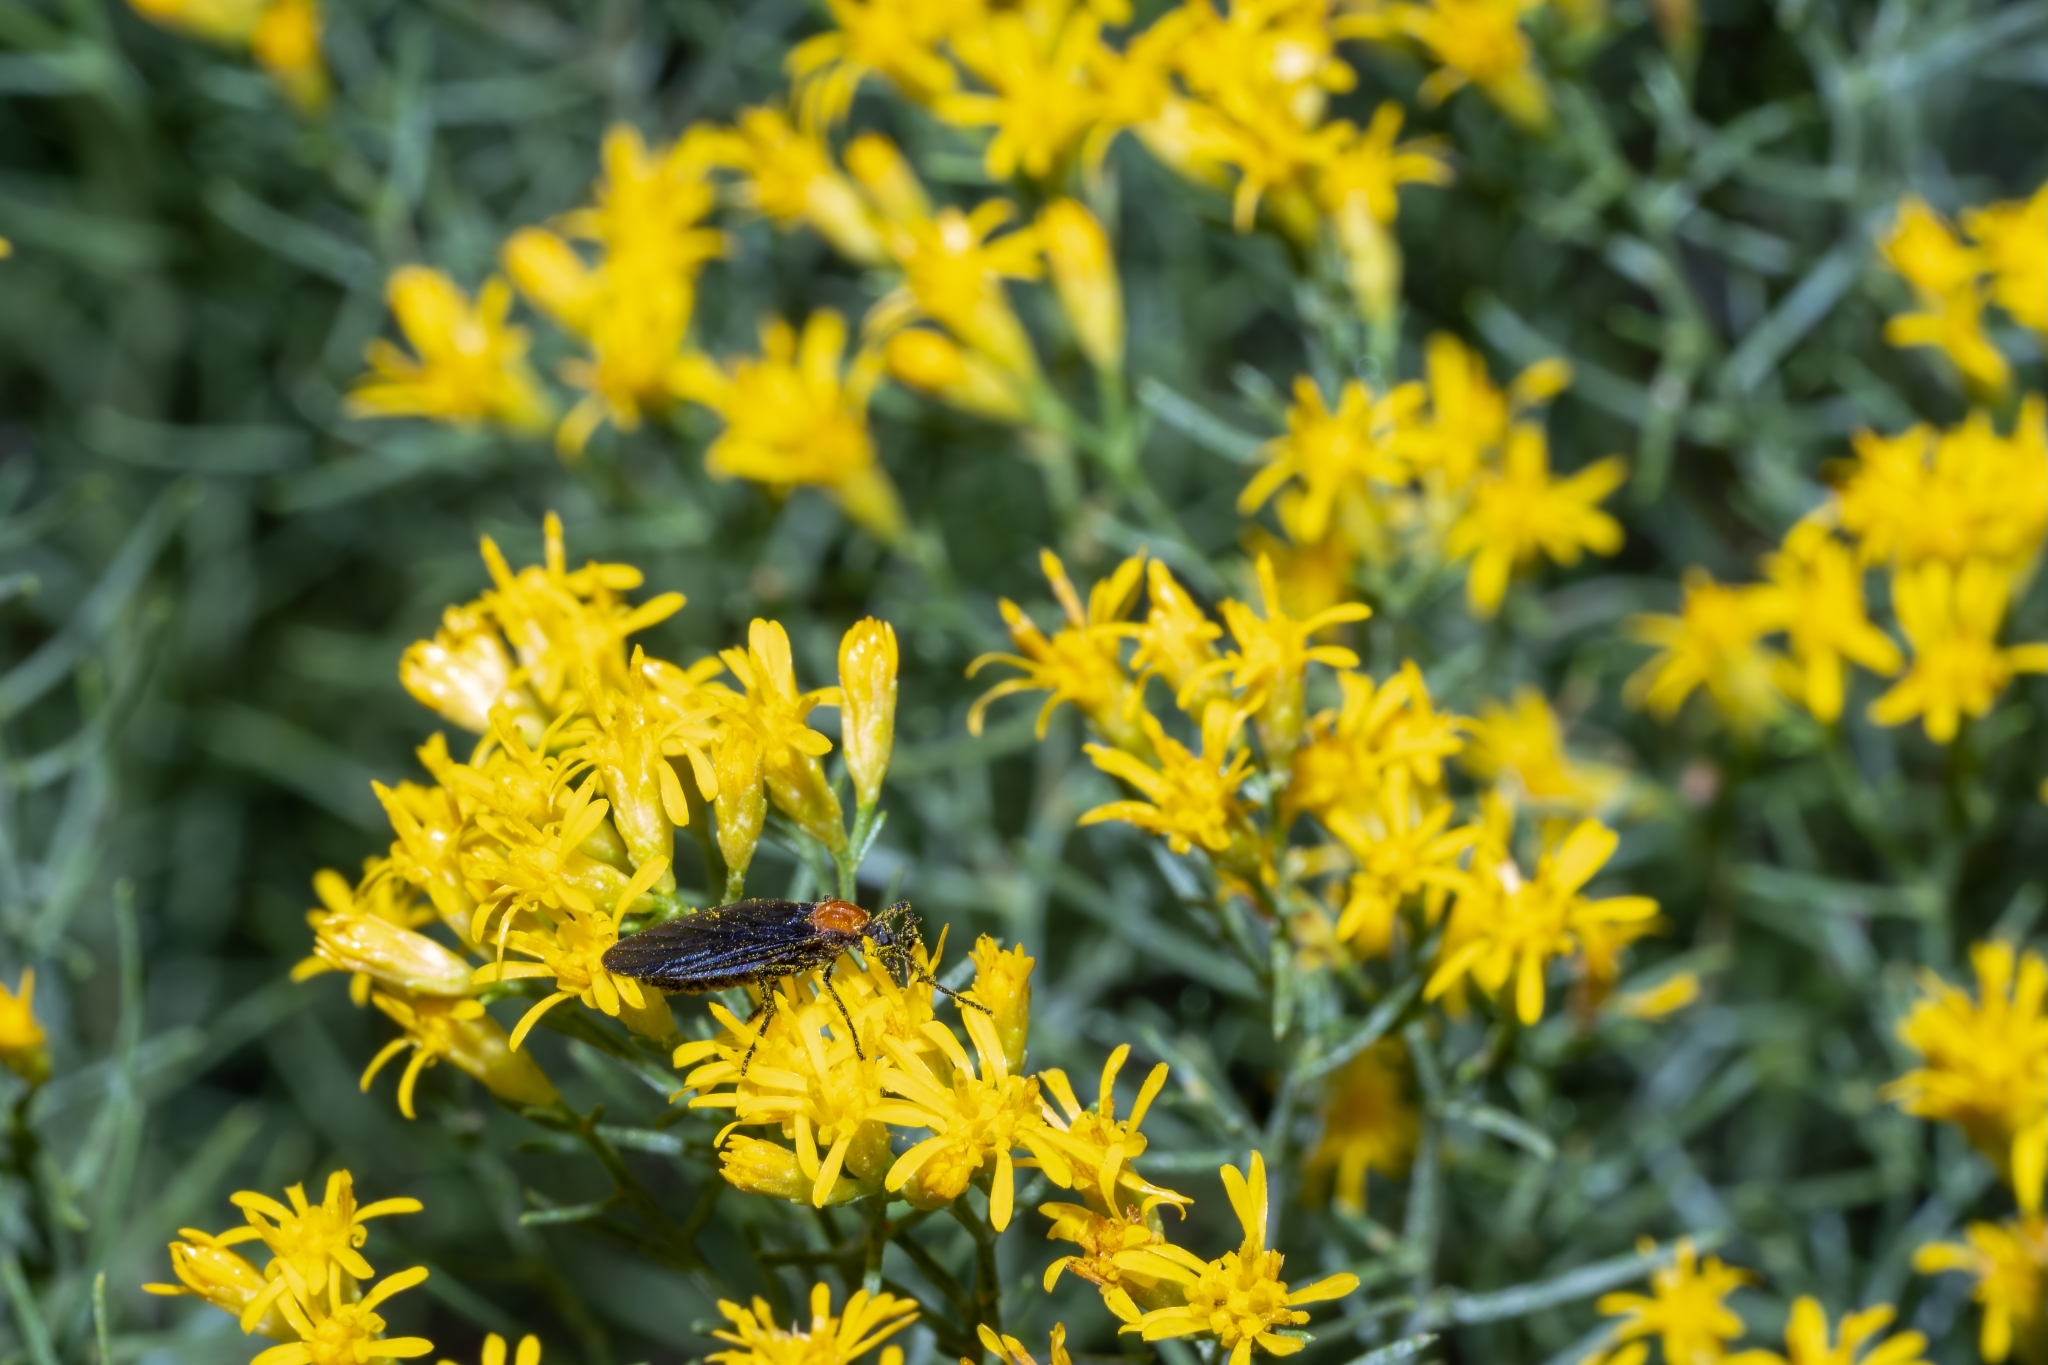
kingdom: Animalia
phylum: Arthropoda
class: Insecta
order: Diptera
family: Bibionidae
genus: Plecia
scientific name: Plecia nearctica
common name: March fly
